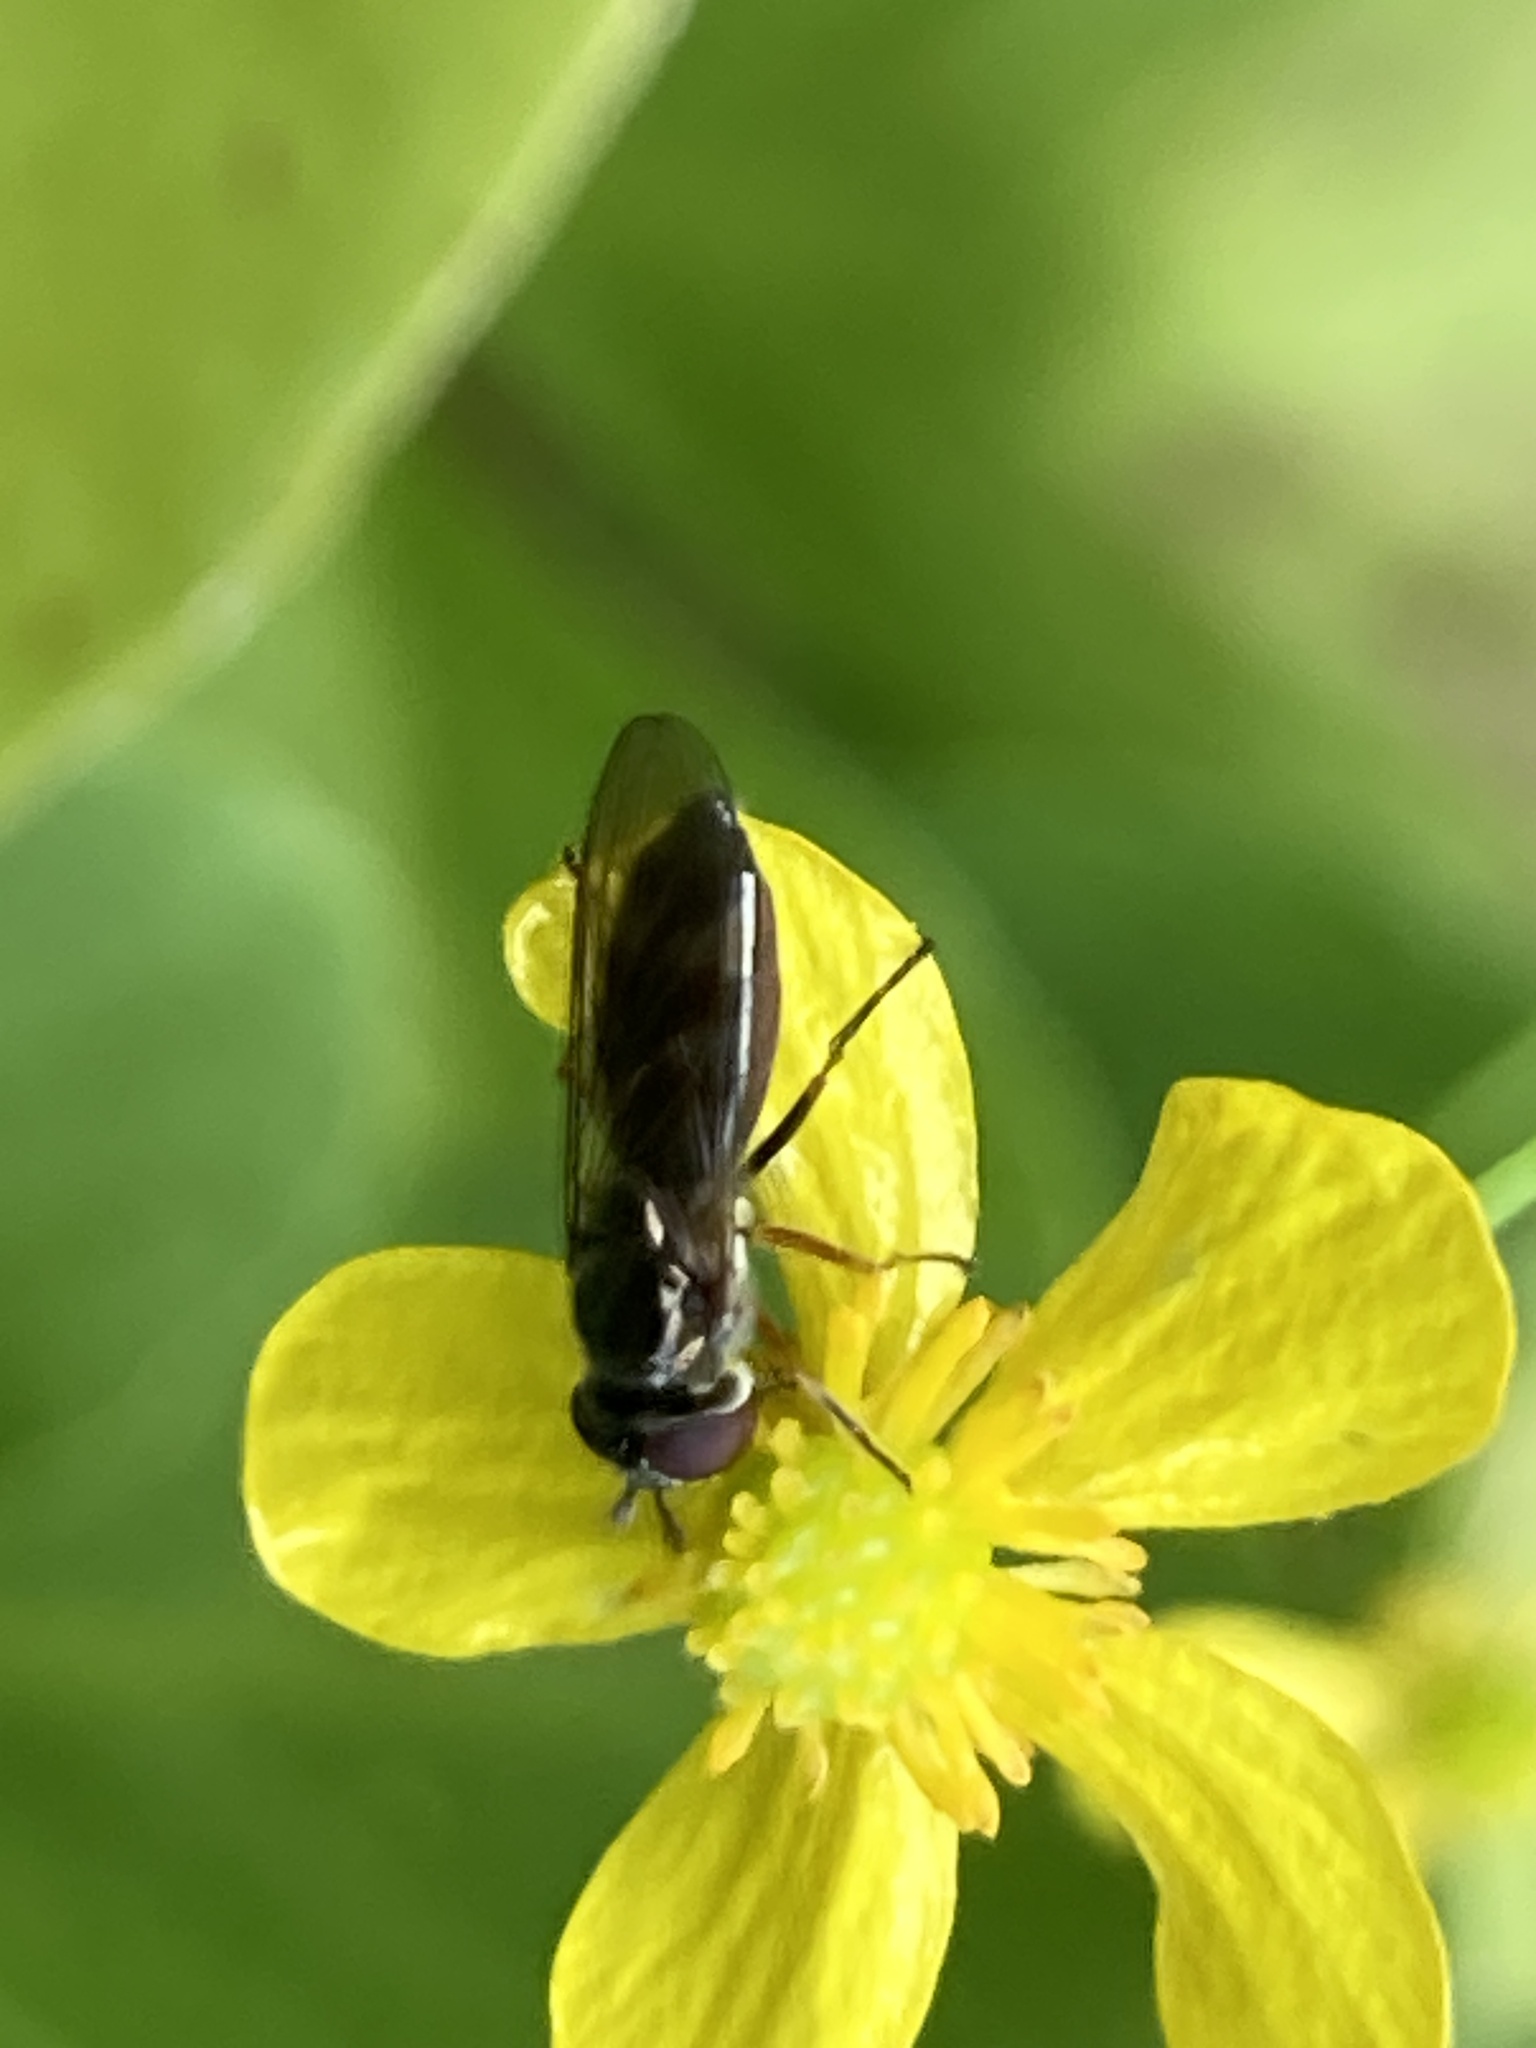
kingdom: Animalia
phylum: Arthropoda
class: Insecta
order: Diptera
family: Syrphidae
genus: Platycheirus
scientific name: Platycheirus albimanus
